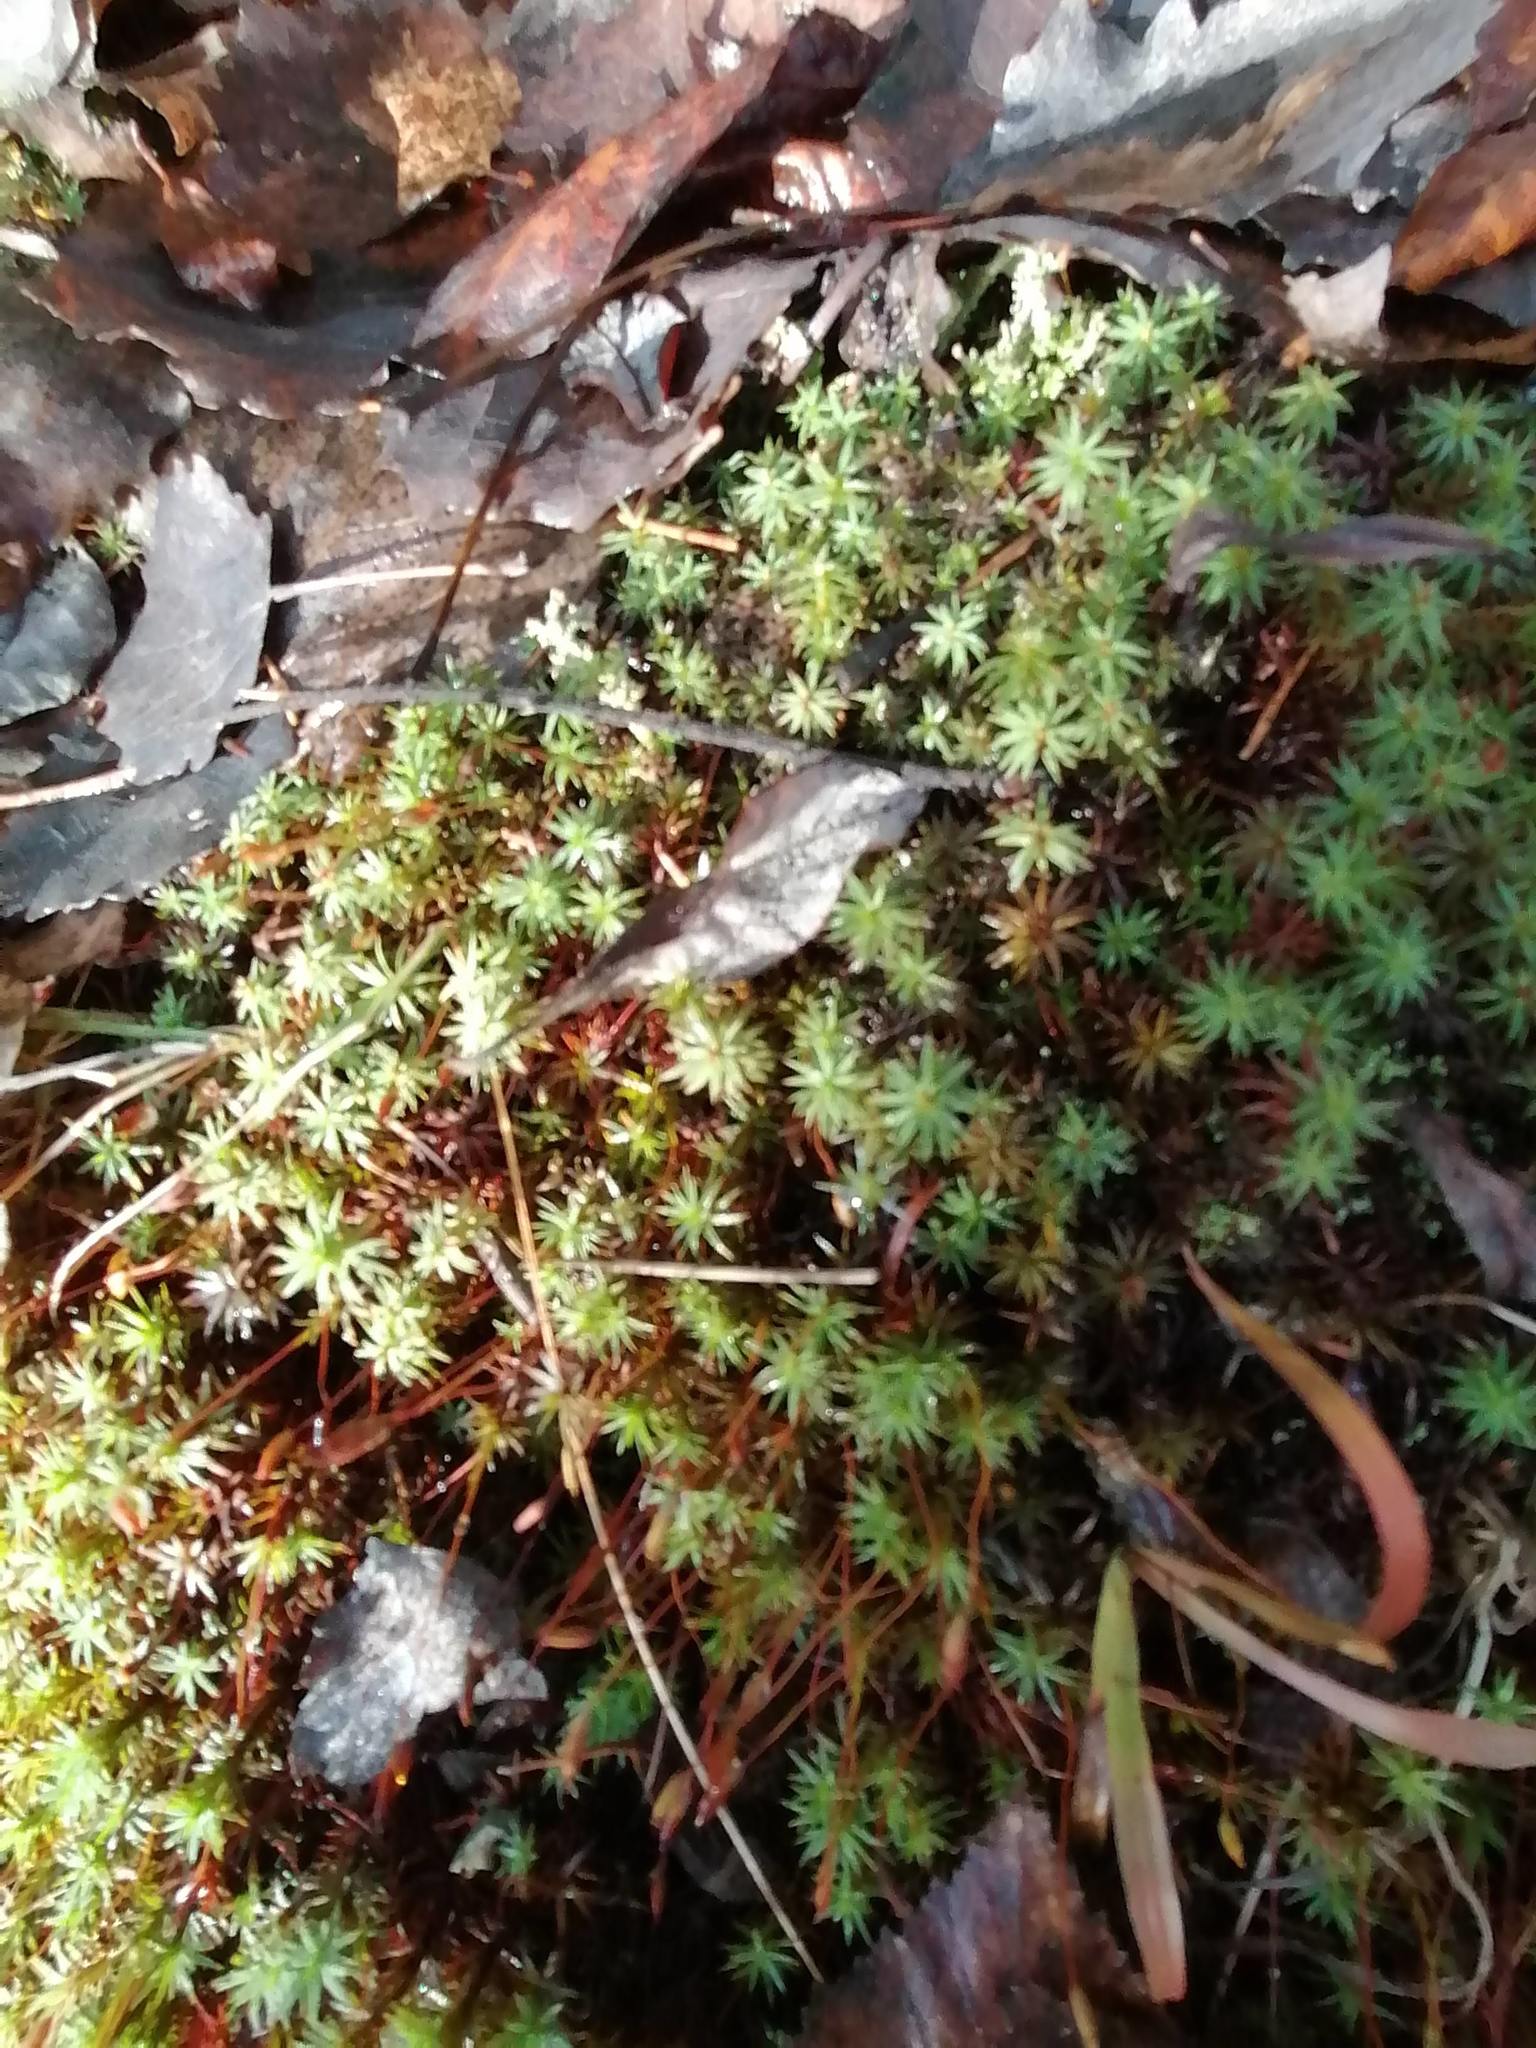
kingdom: Plantae
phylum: Bryophyta
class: Polytrichopsida
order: Polytrichales
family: Polytrichaceae
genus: Pogonatum
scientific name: Pogonatum urnigerum
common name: Urn hair moss
